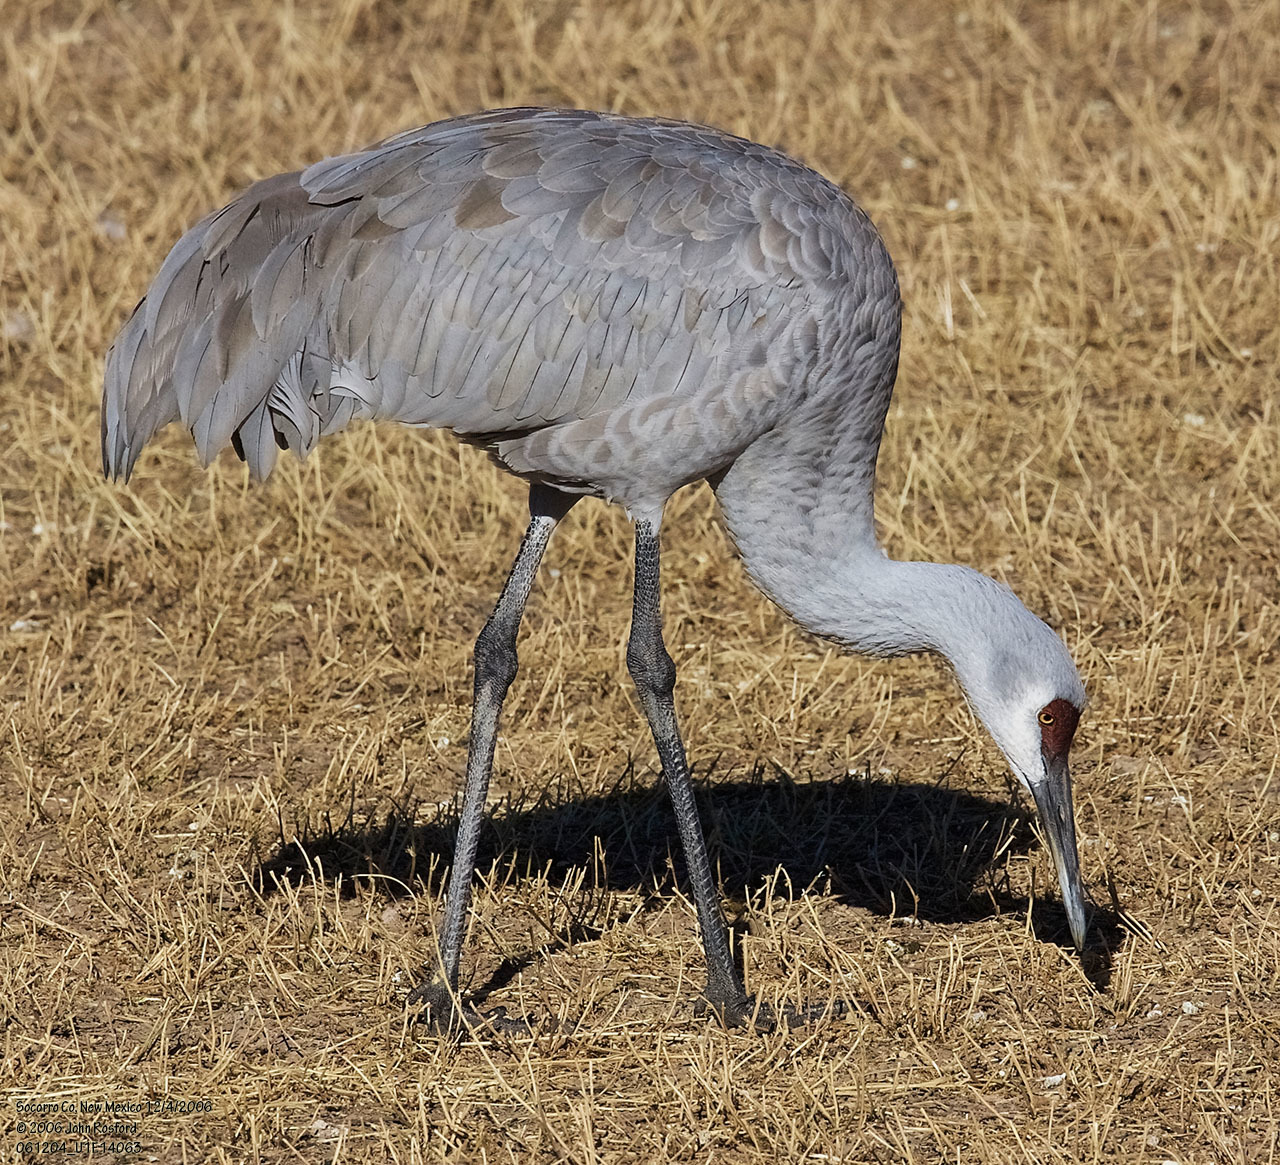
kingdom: Animalia
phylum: Chordata
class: Aves
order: Gruiformes
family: Gruidae
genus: Grus
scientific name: Grus canadensis
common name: Sandhill crane
